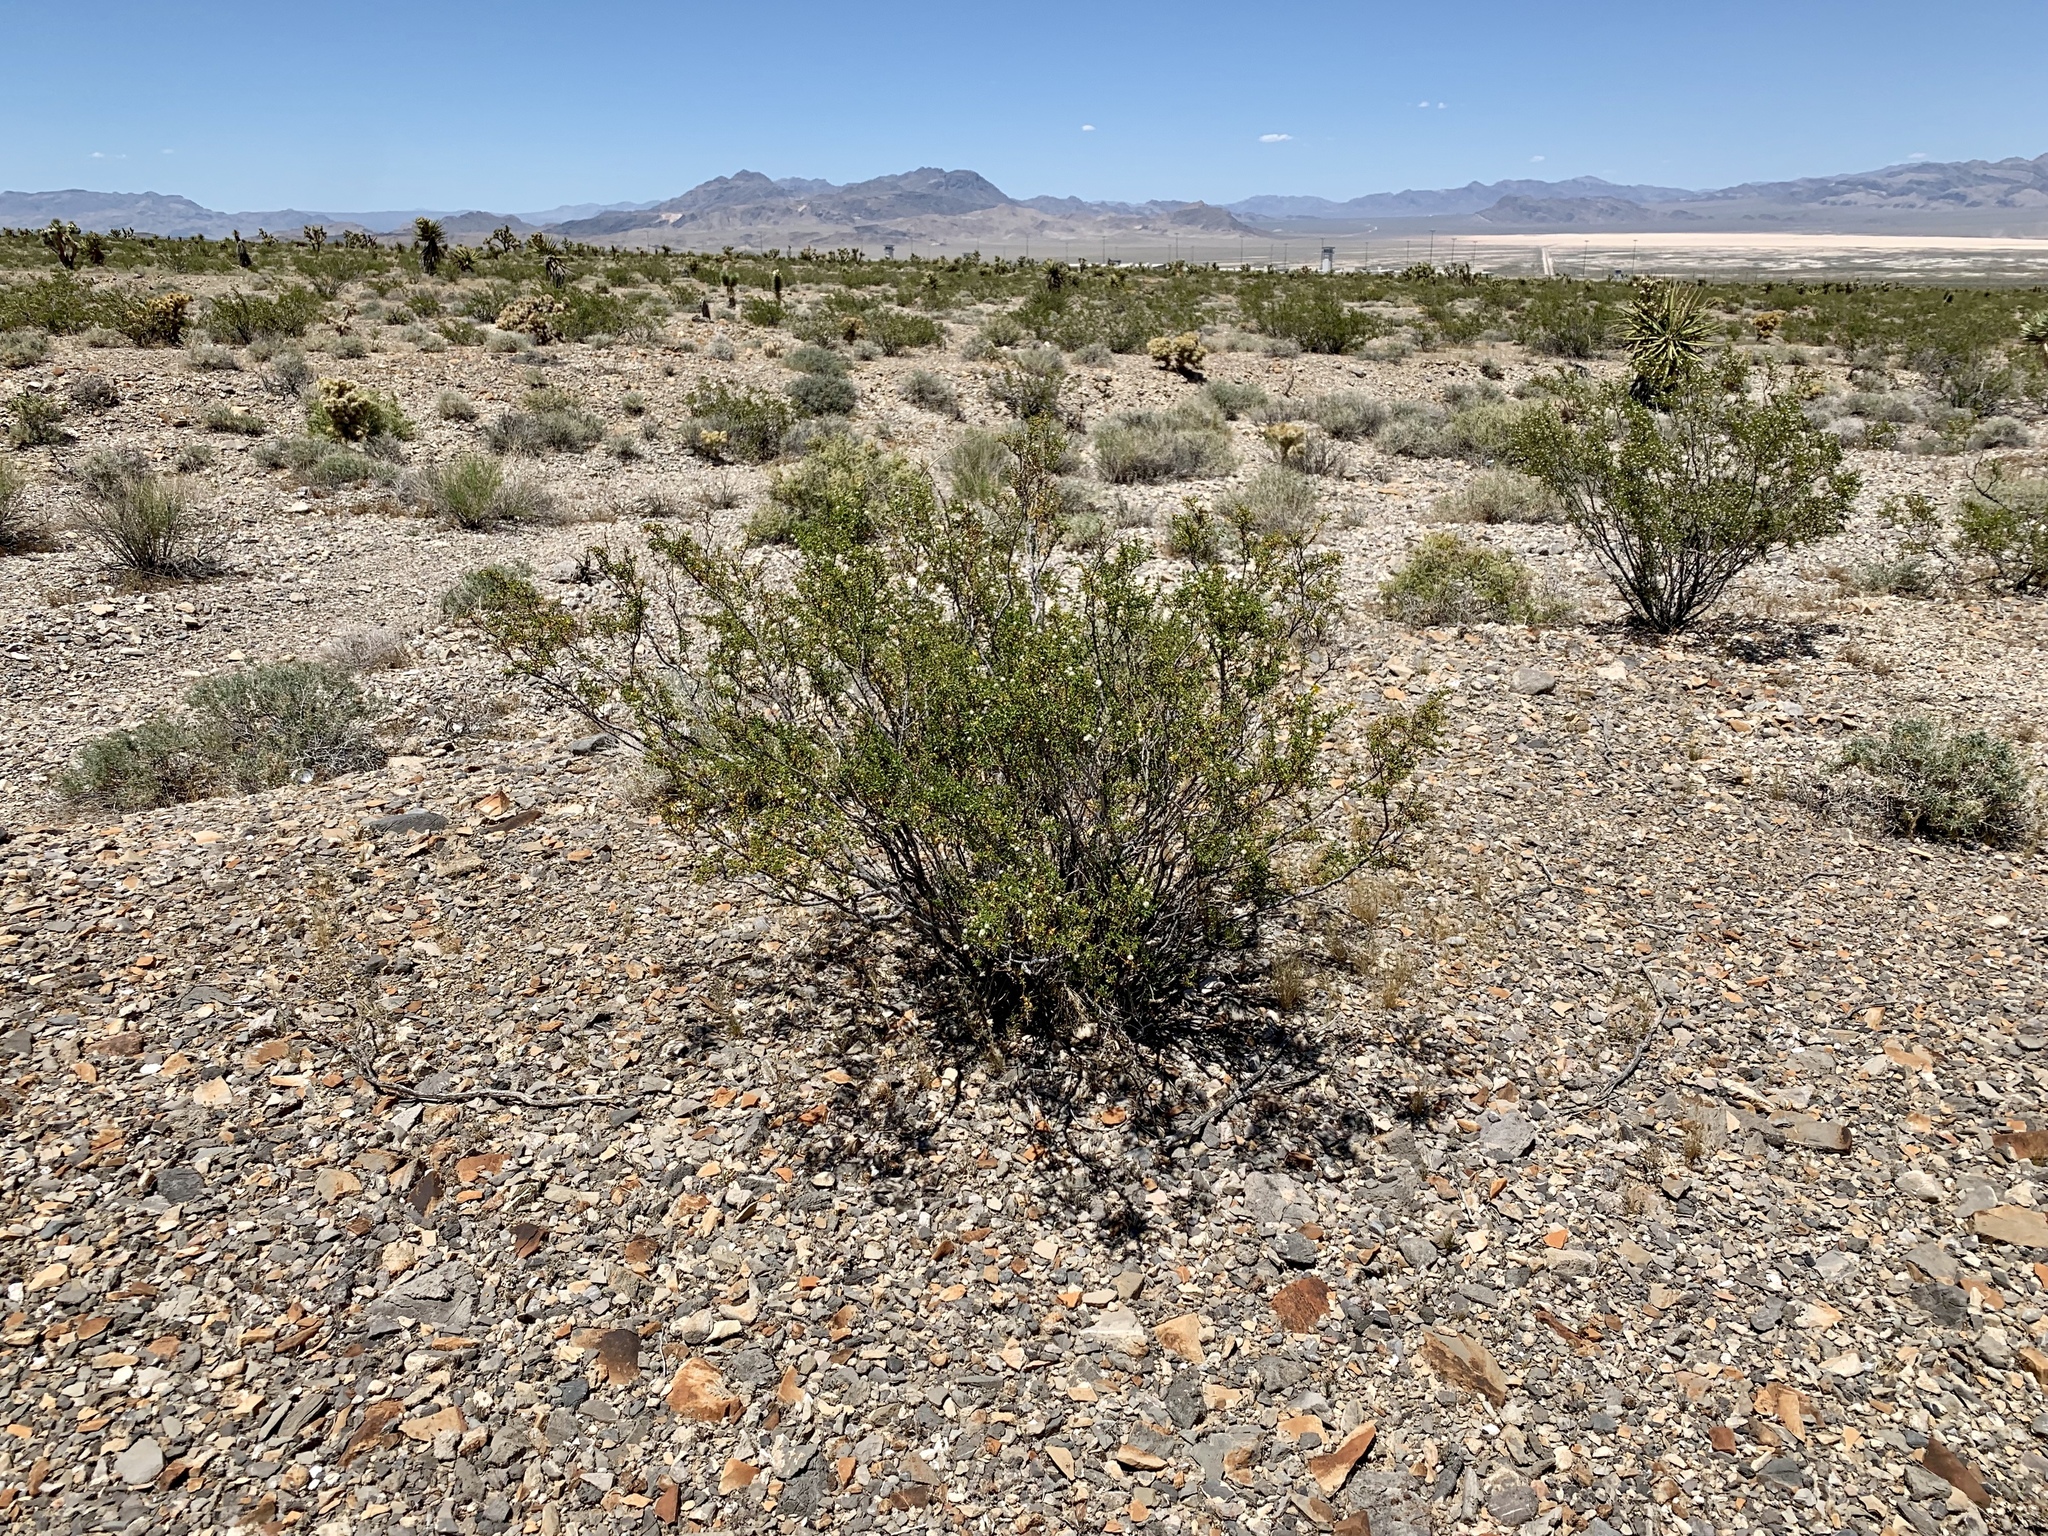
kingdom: Plantae
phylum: Tracheophyta
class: Magnoliopsida
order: Zygophyllales
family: Zygophyllaceae
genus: Larrea
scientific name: Larrea tridentata
